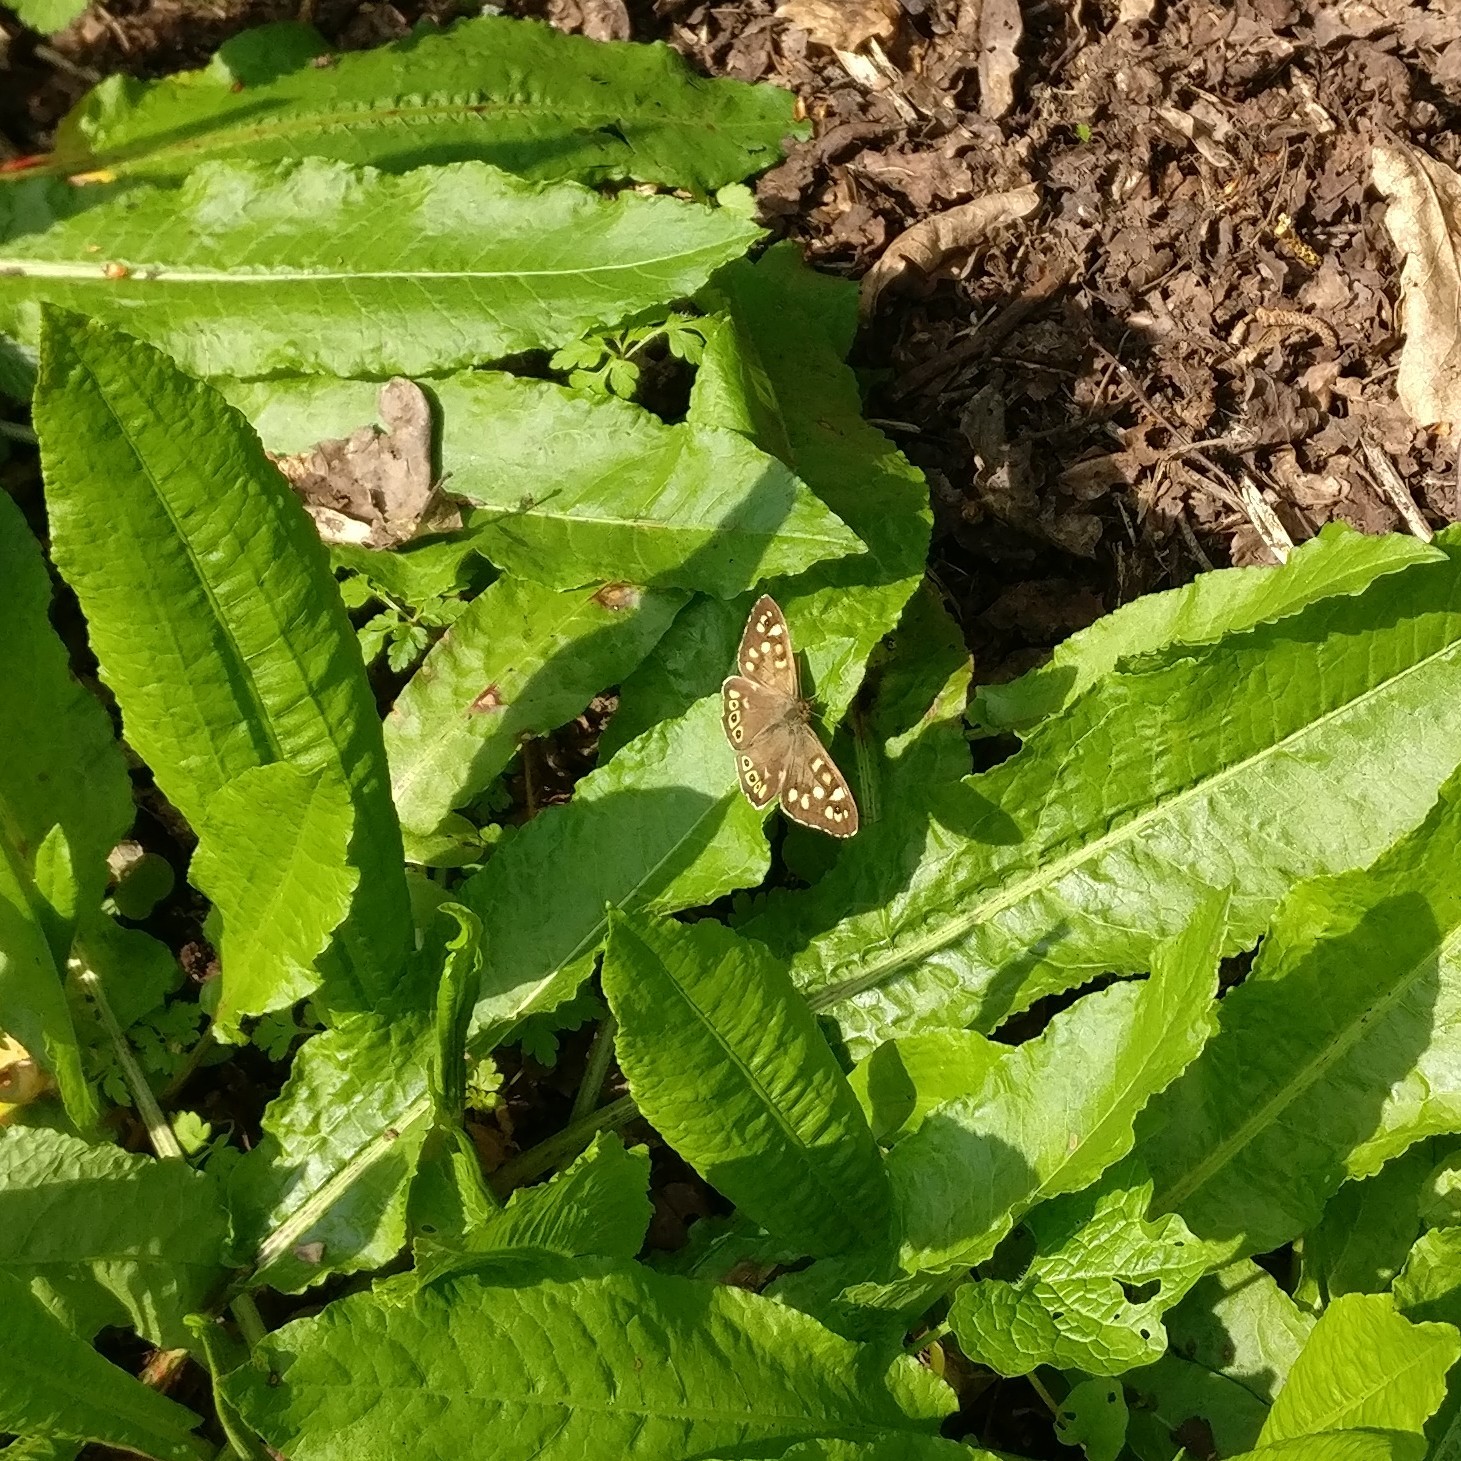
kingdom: Animalia
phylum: Arthropoda
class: Insecta
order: Lepidoptera
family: Nymphalidae
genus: Pararge
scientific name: Pararge aegeria
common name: Speckled wood
